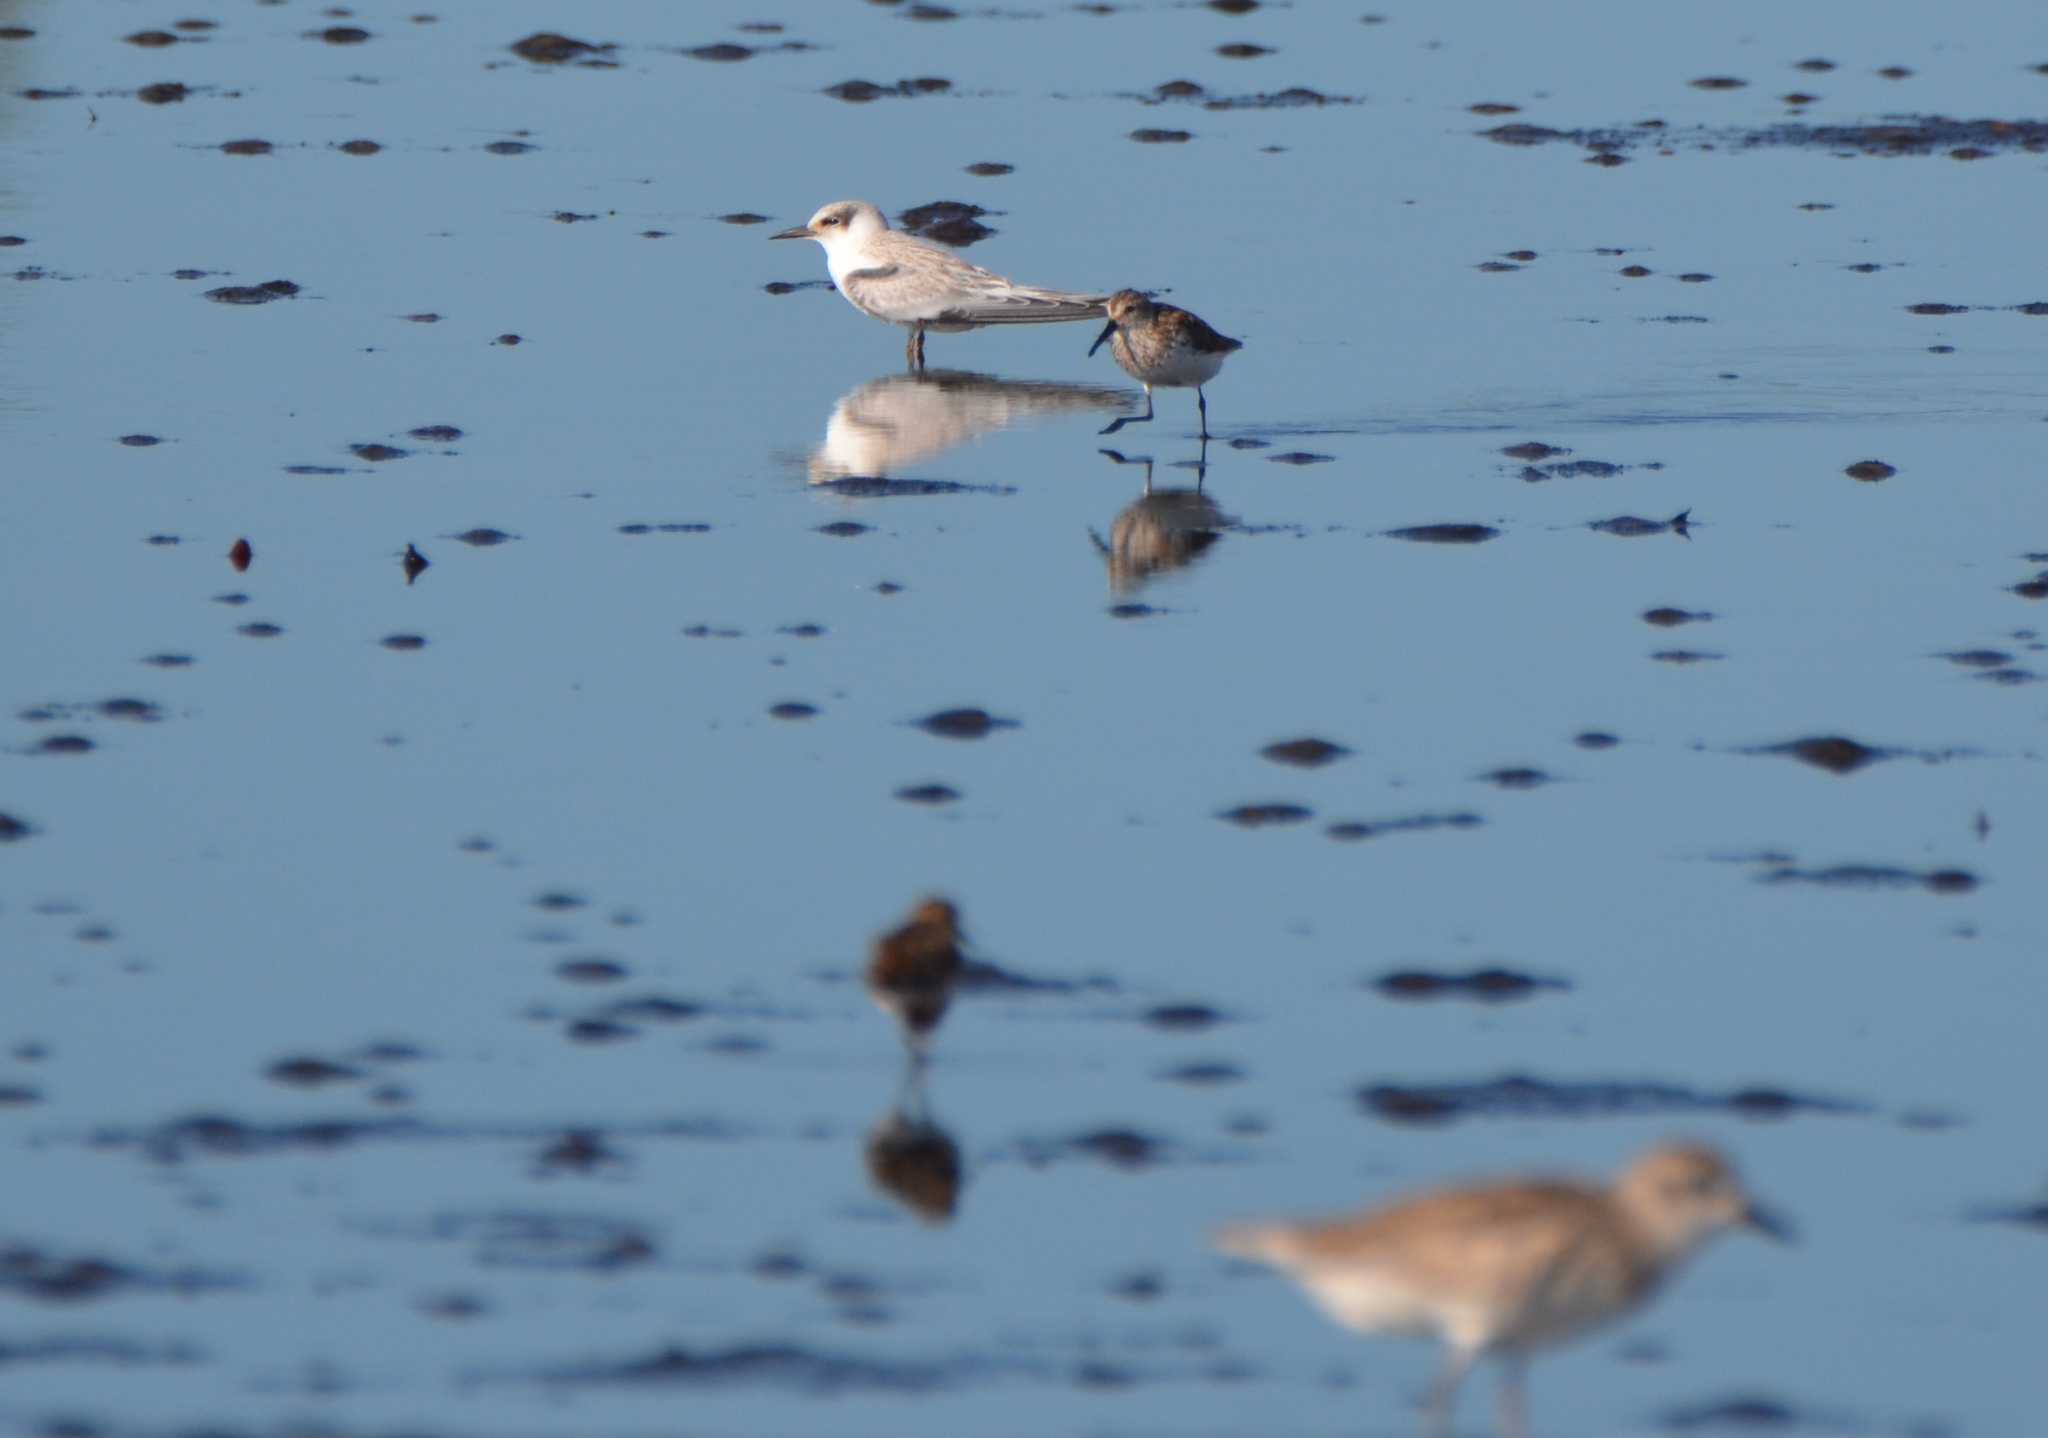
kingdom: Animalia
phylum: Chordata
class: Aves
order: Charadriiformes
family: Laridae
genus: Sternula
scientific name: Sternula antillarum
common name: Least tern
